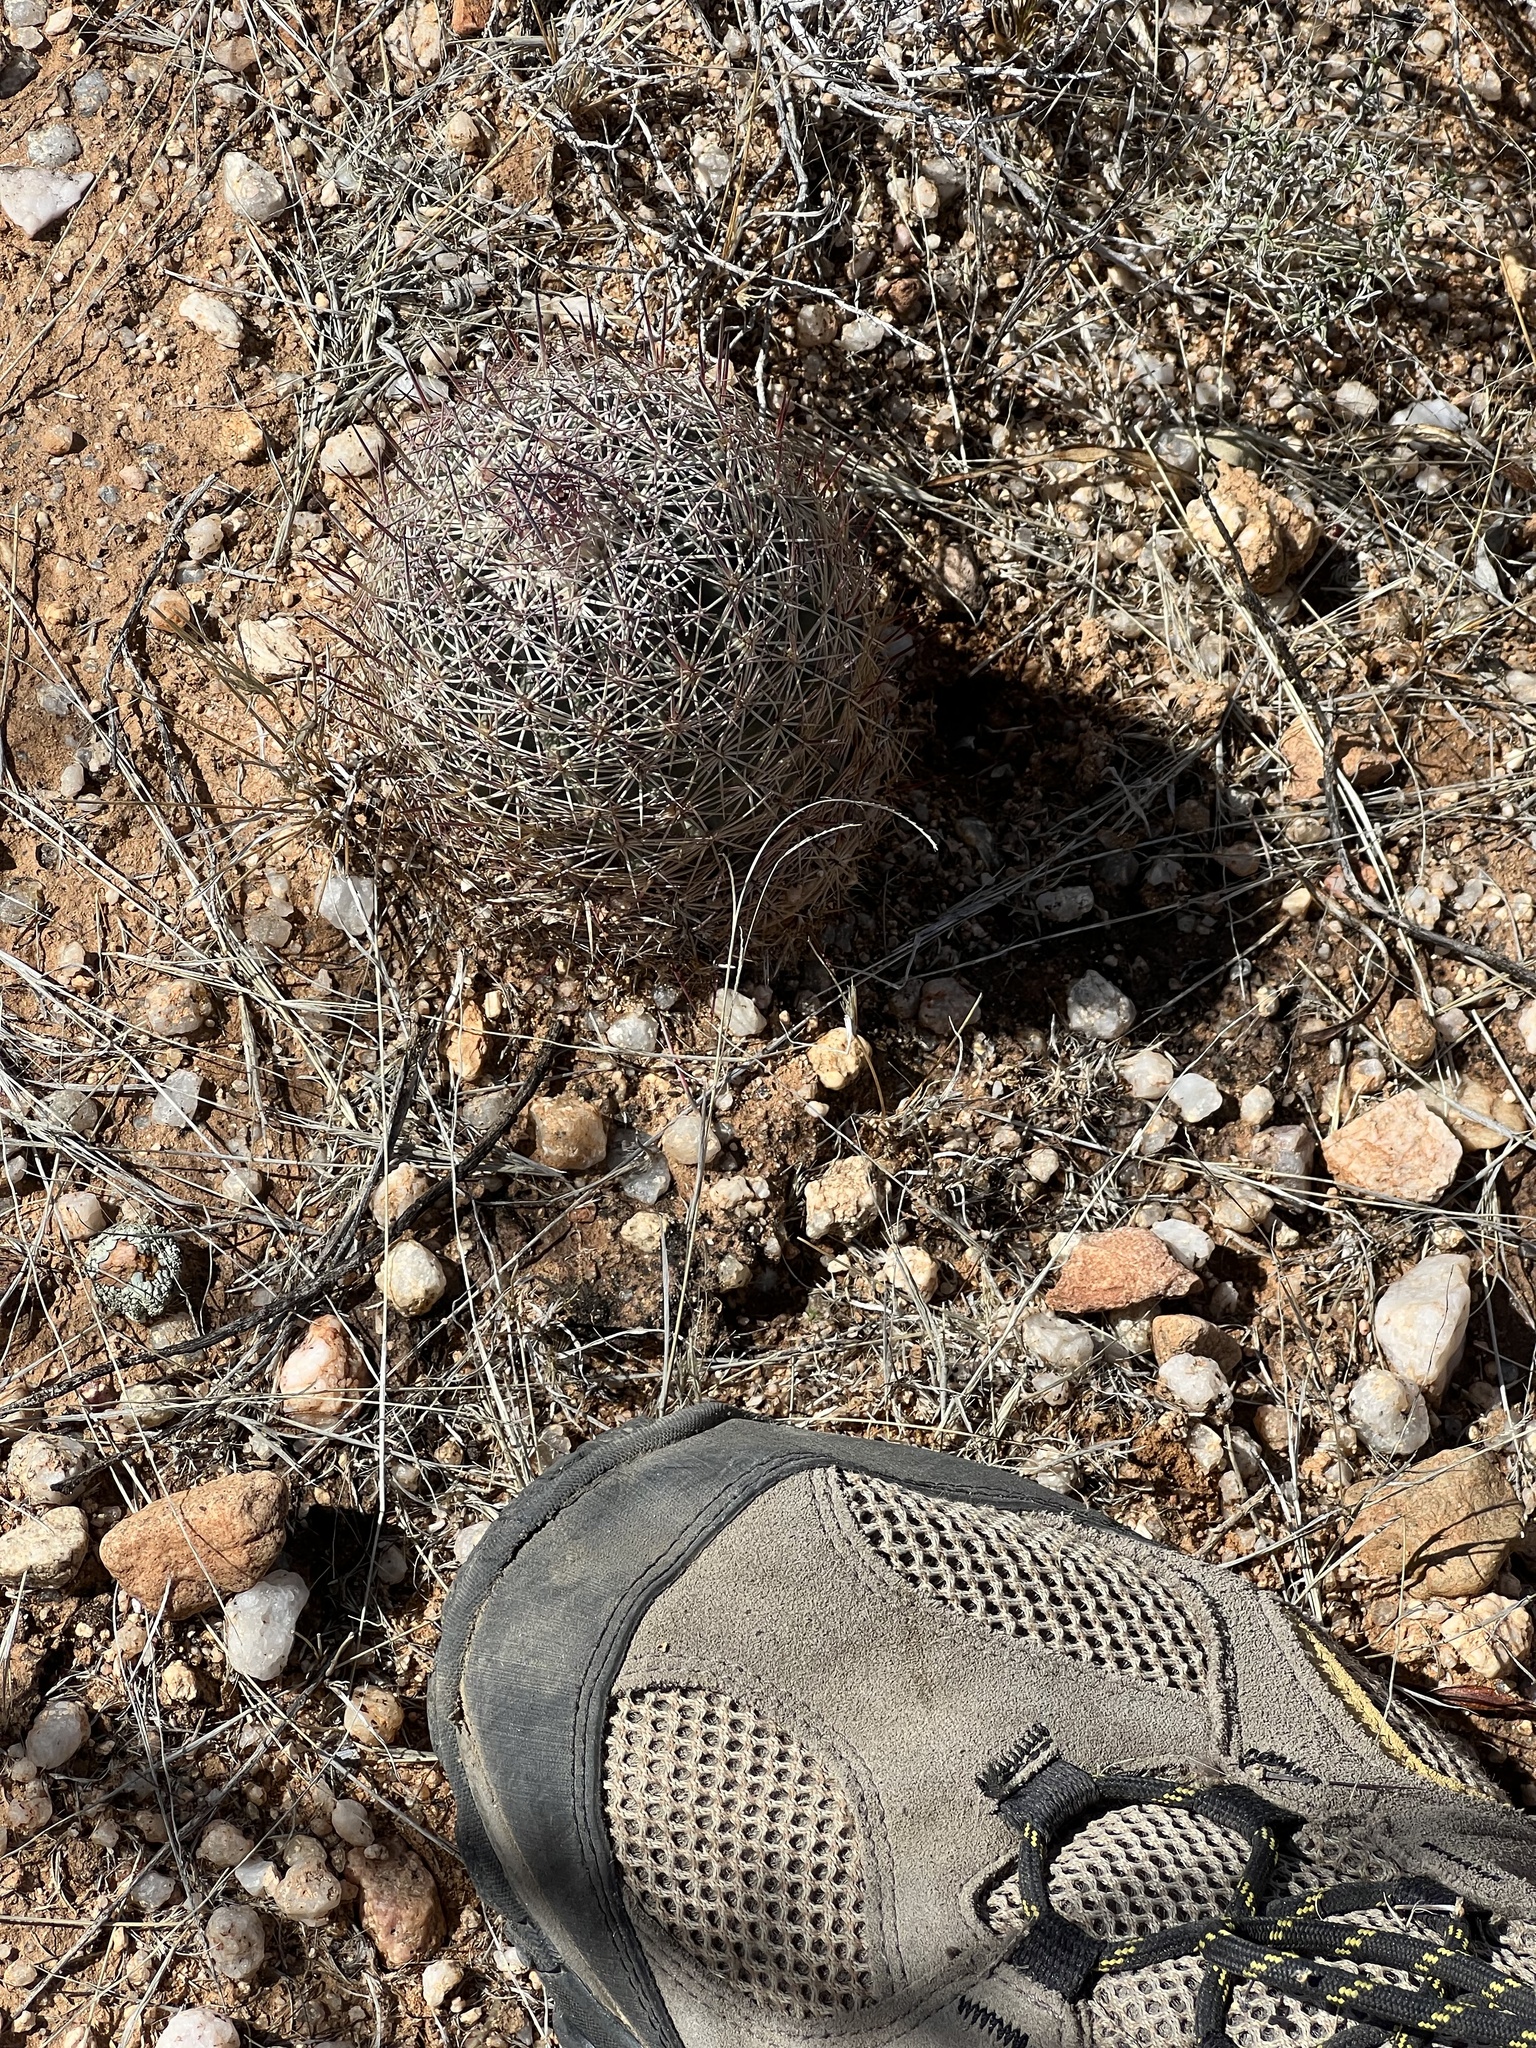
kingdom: Plantae
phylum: Tracheophyta
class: Magnoliopsida
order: Caryophyllales
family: Cactaceae
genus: Sclerocactus
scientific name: Sclerocactus johnsonii
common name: Eight-spine fishhook cactus
